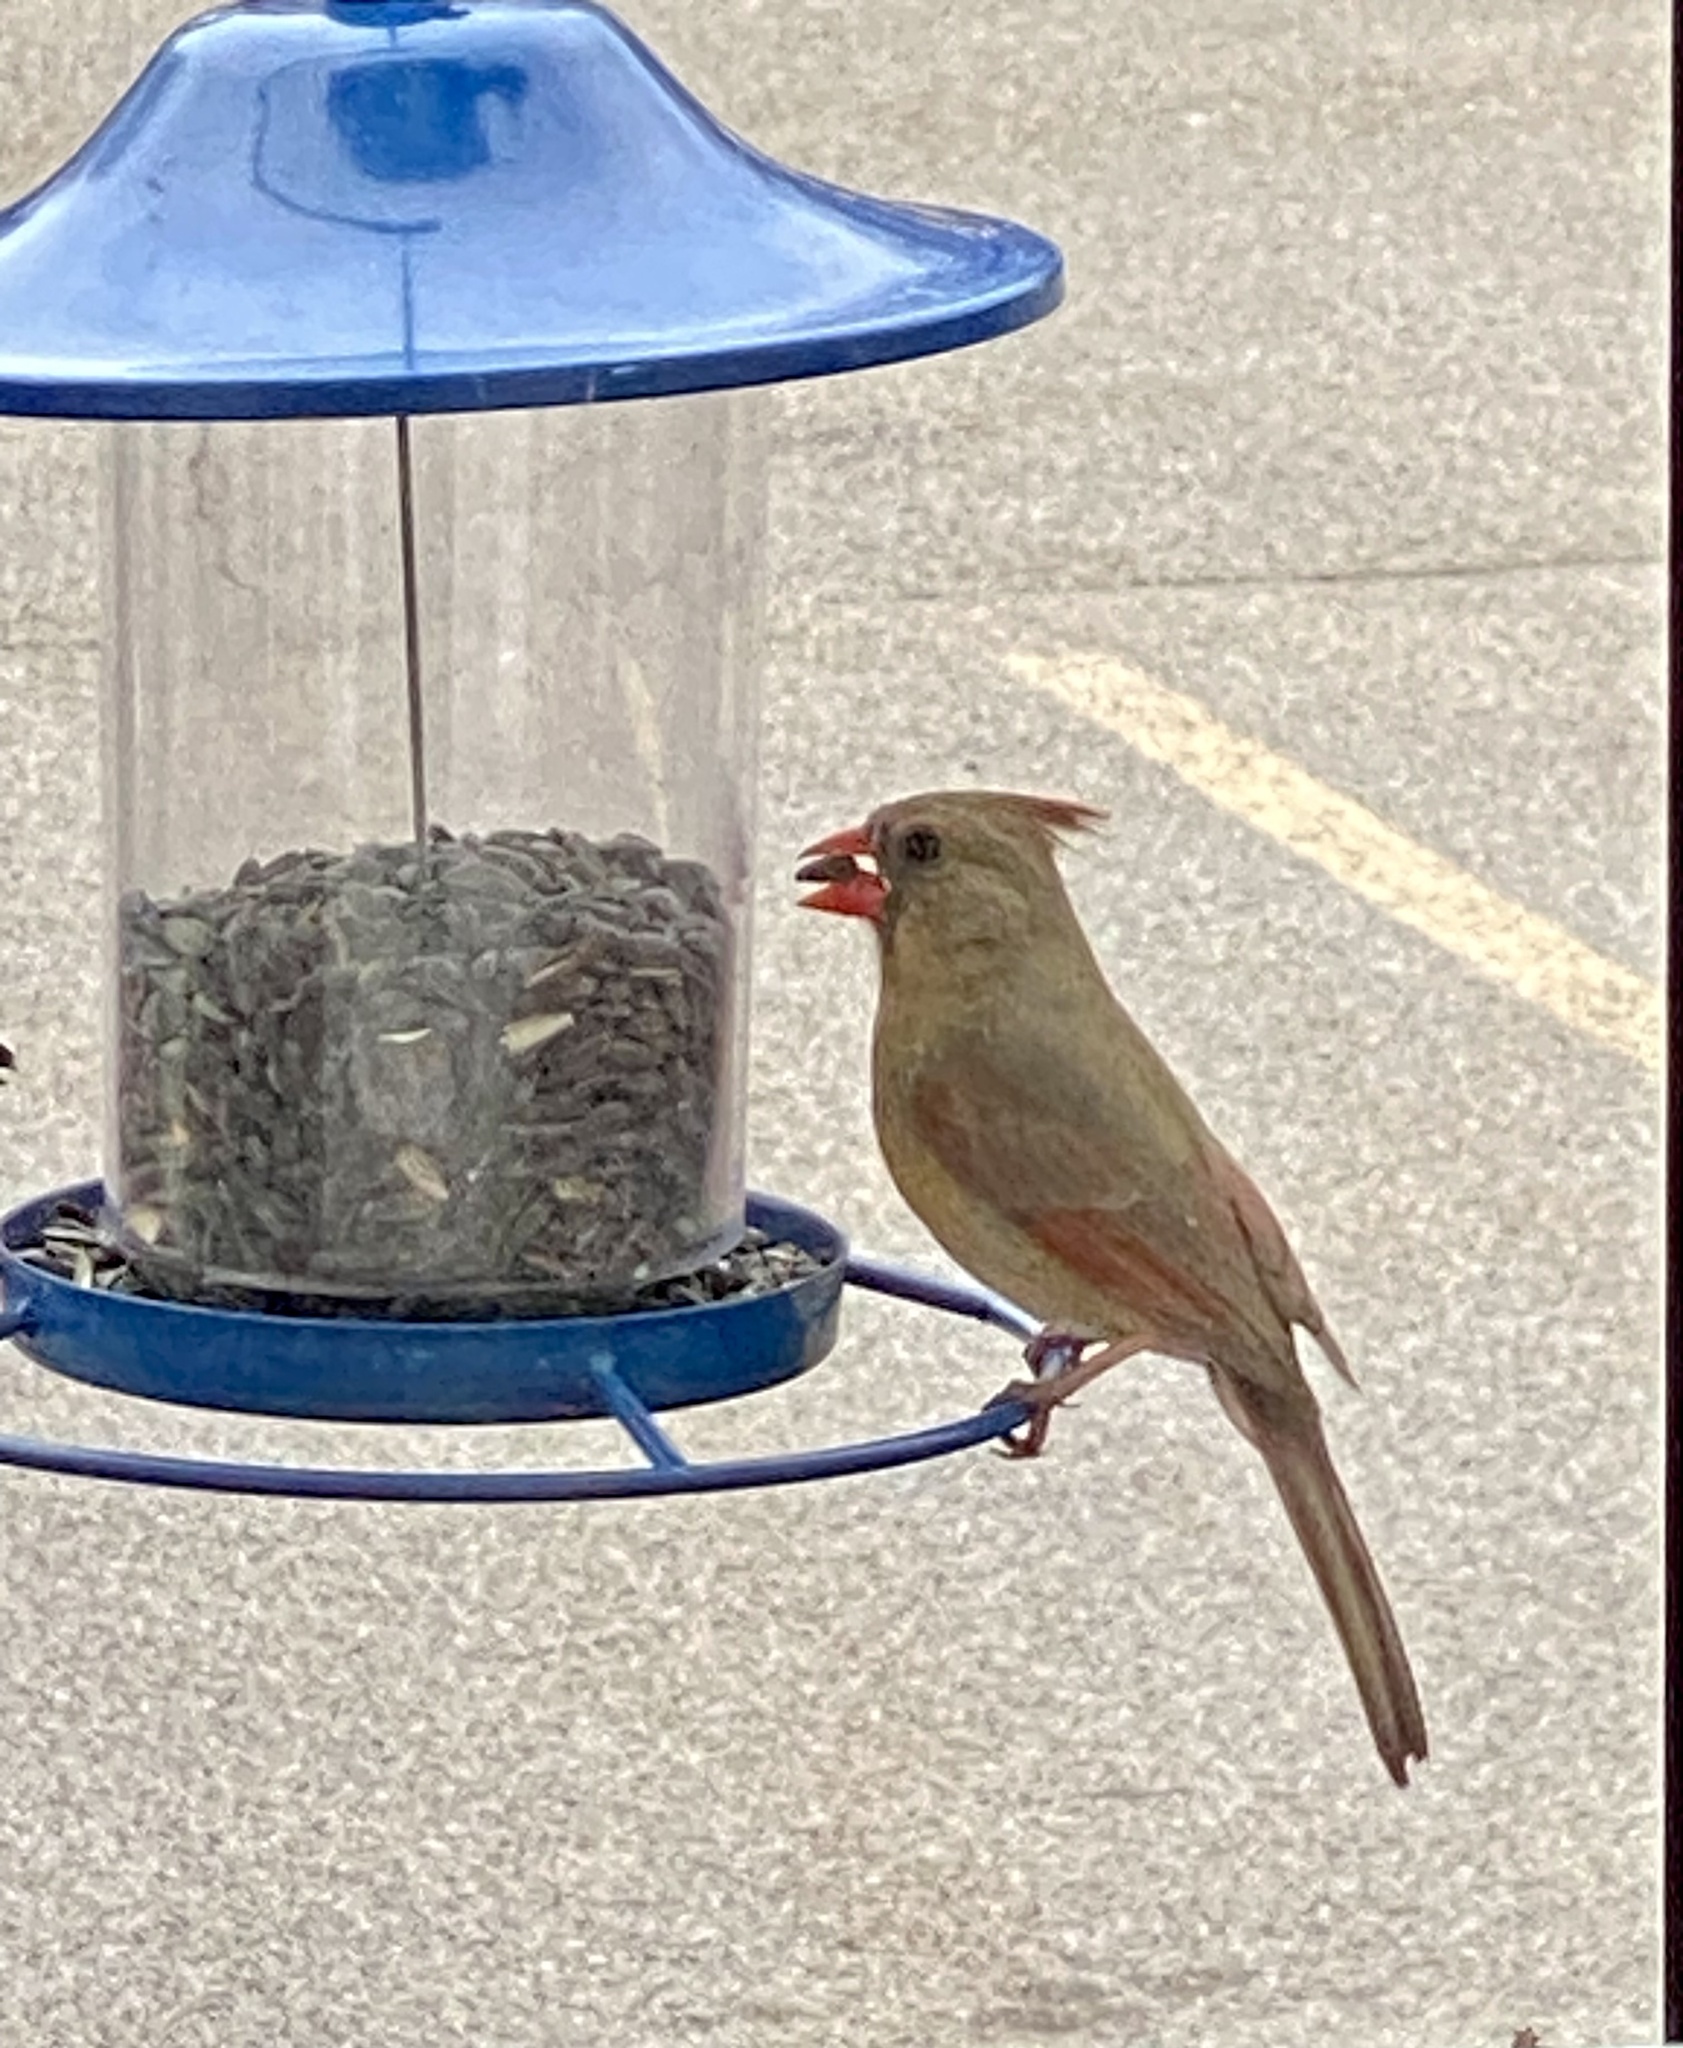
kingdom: Animalia
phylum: Chordata
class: Aves
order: Passeriformes
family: Cardinalidae
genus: Cardinalis
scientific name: Cardinalis cardinalis
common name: Northern cardinal
